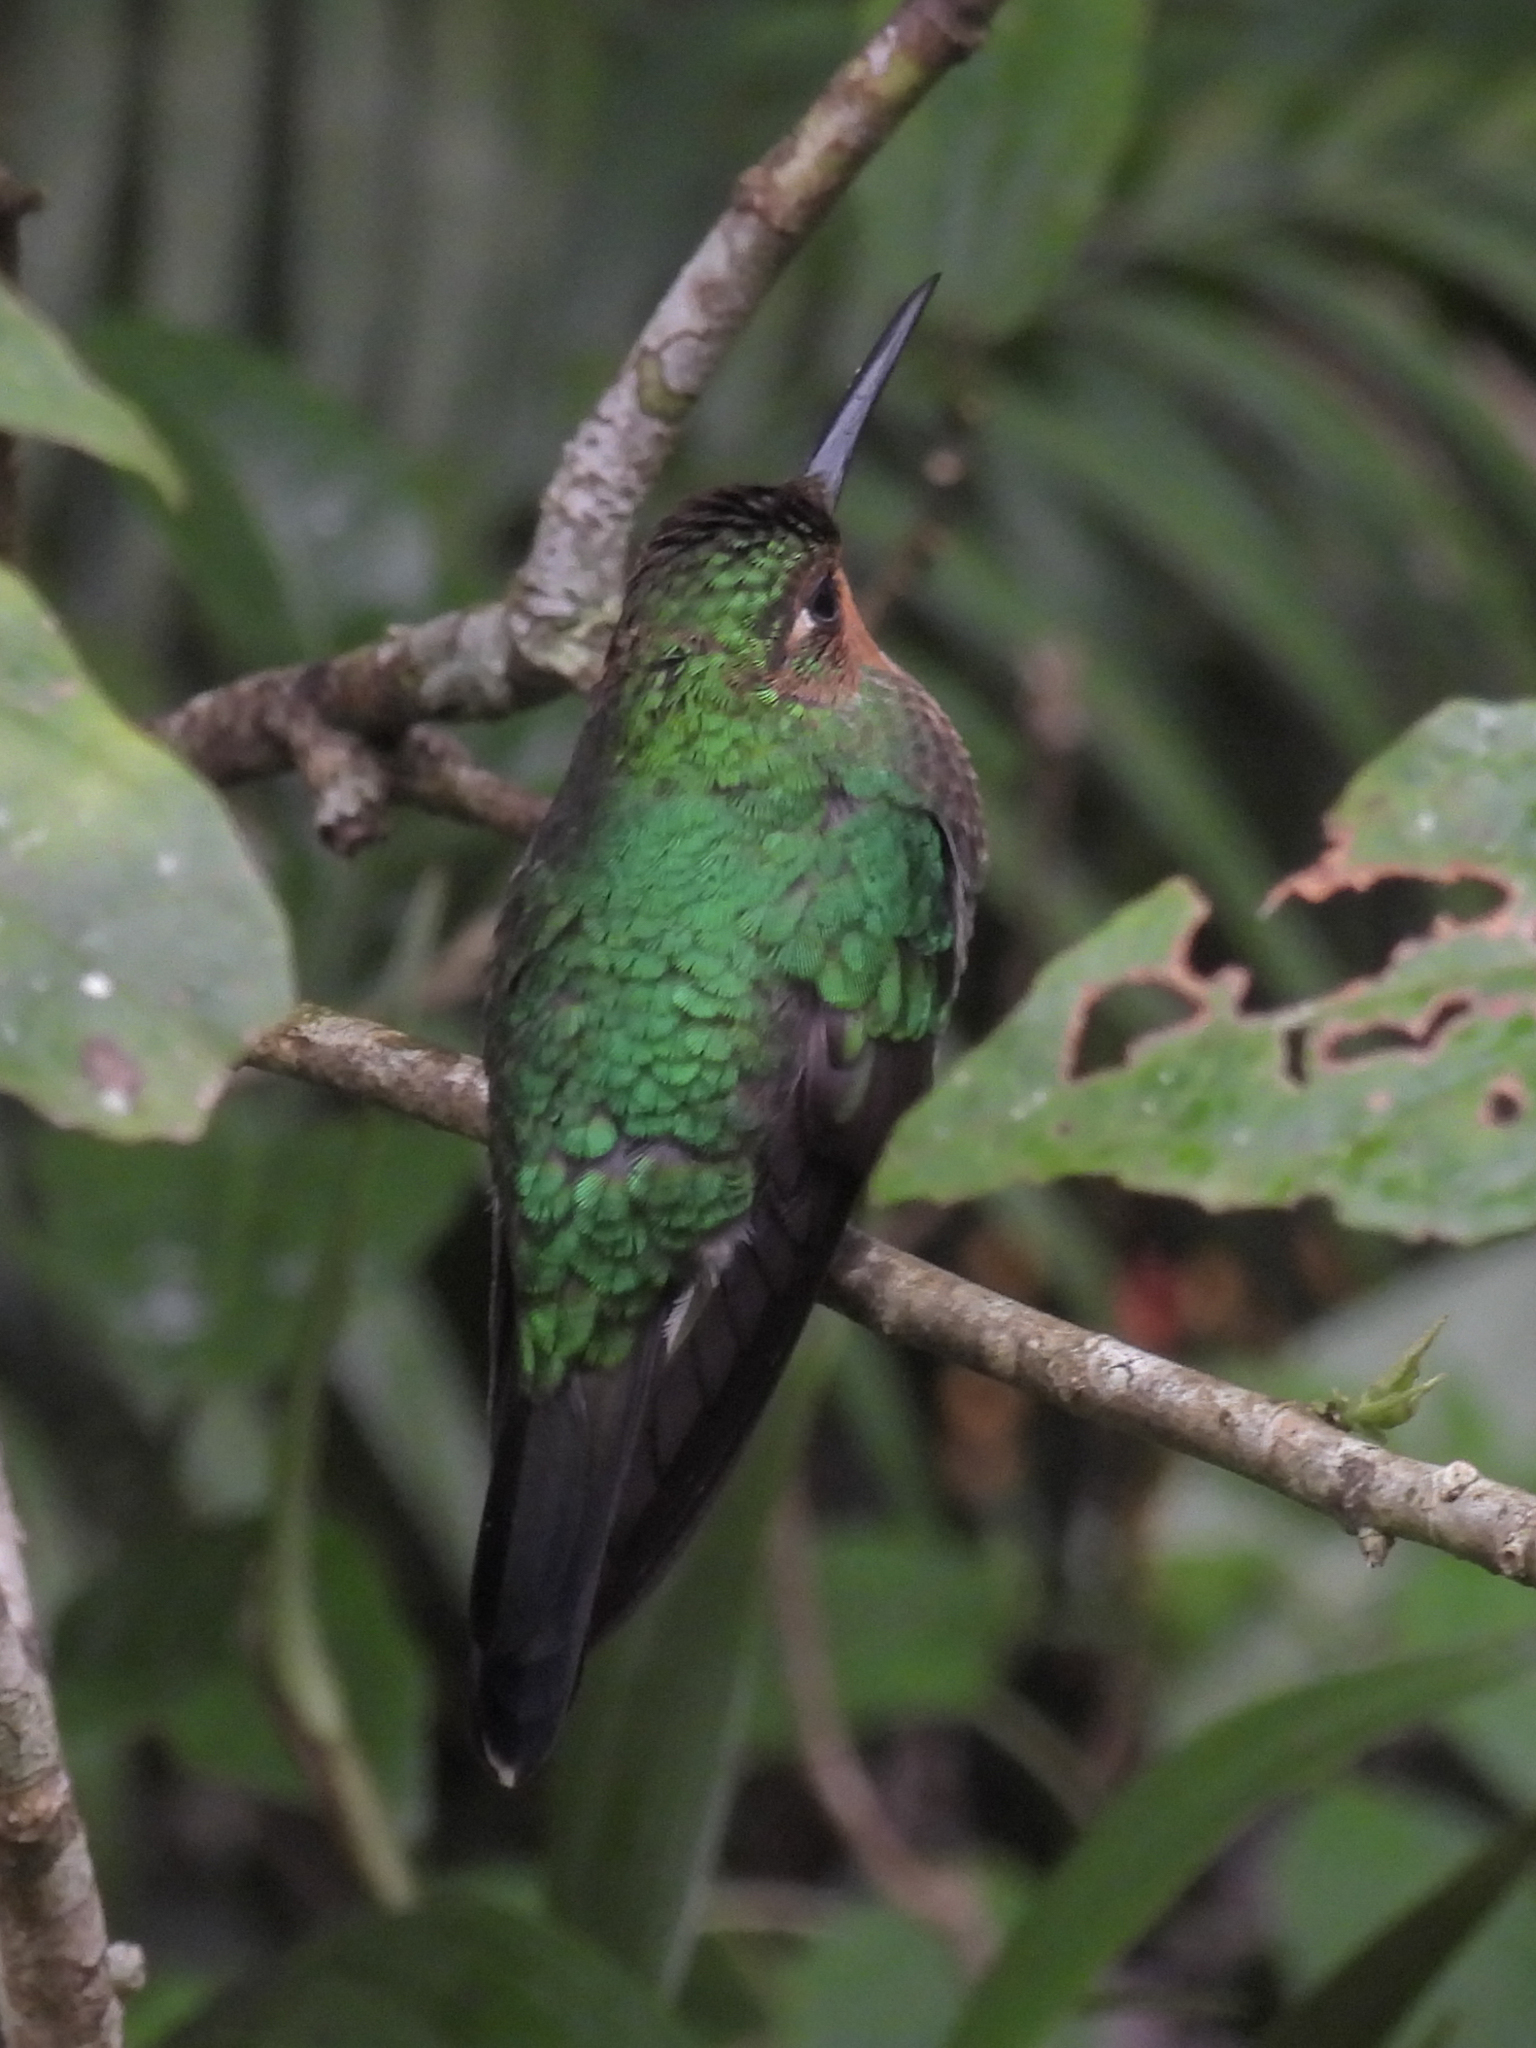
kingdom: Animalia
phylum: Chordata
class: Aves
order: Apodiformes
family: Trochilidae
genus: Heliodoxa
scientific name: Heliodoxa jacula
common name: Green-crowned brilliant
